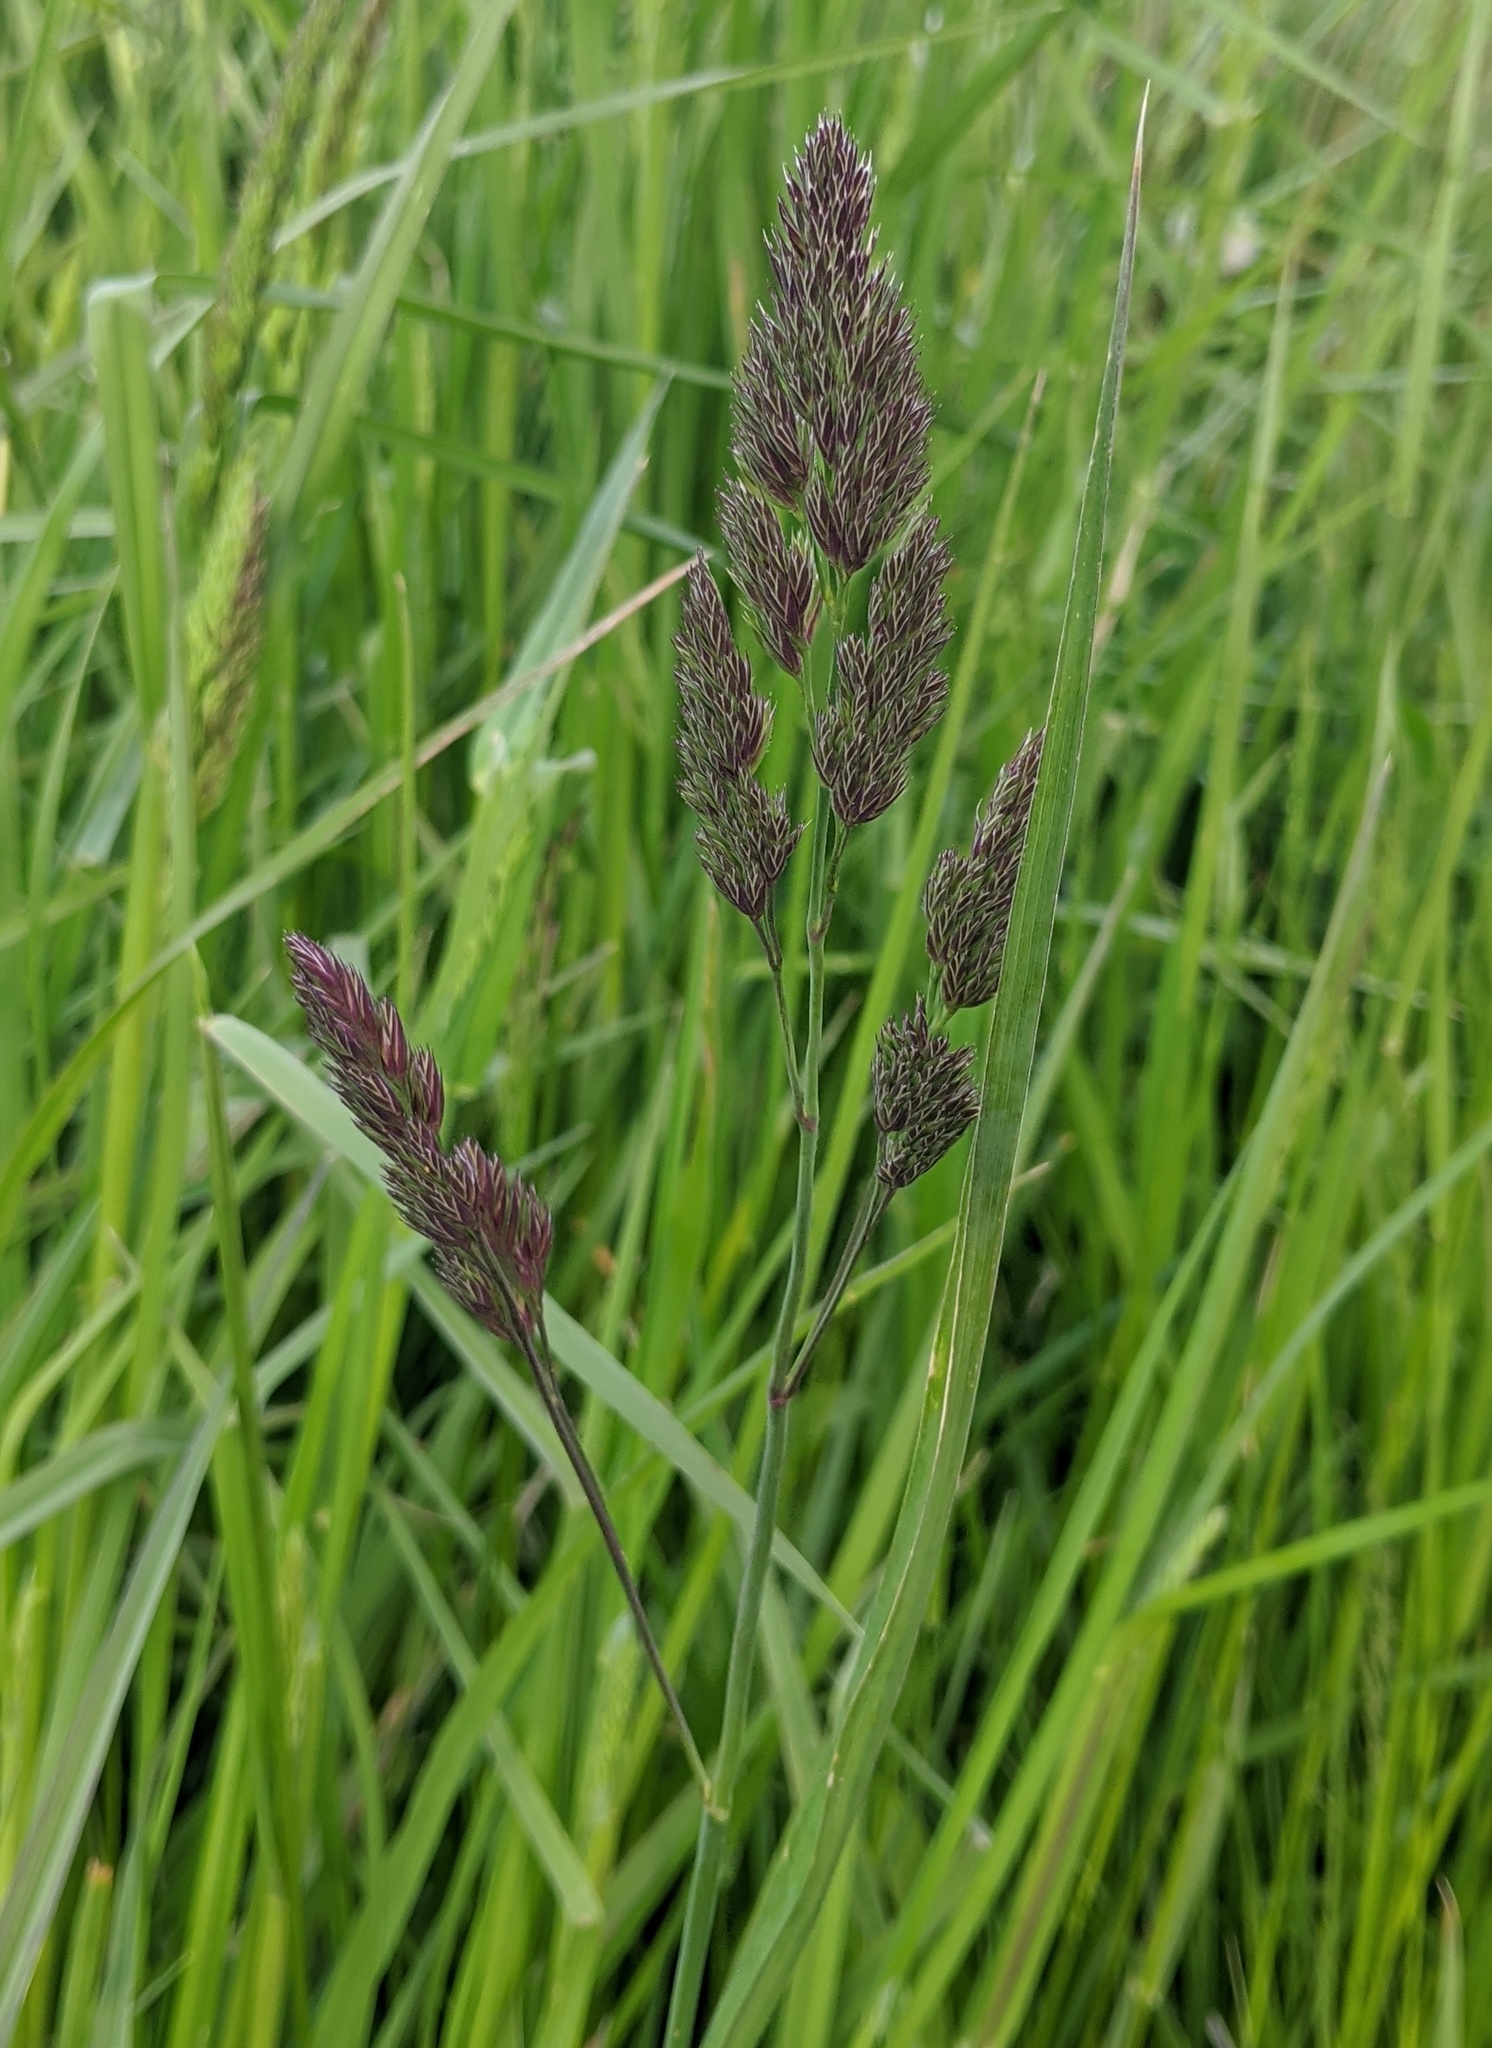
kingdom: Plantae
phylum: Tracheophyta
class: Liliopsida
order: Poales
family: Poaceae
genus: Dactylis
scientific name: Dactylis glomerata
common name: Orchardgrass
